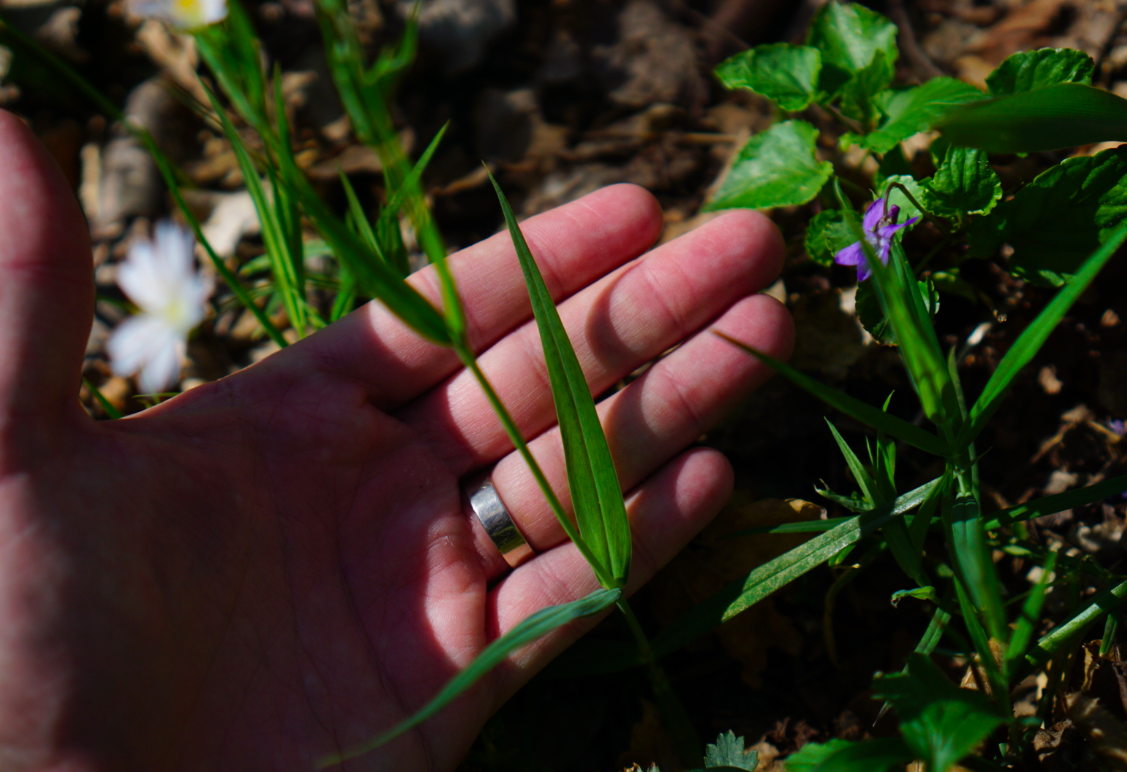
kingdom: Plantae
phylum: Tracheophyta
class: Magnoliopsida
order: Caryophyllales
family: Caryophyllaceae
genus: Rabelera
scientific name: Rabelera holostea
